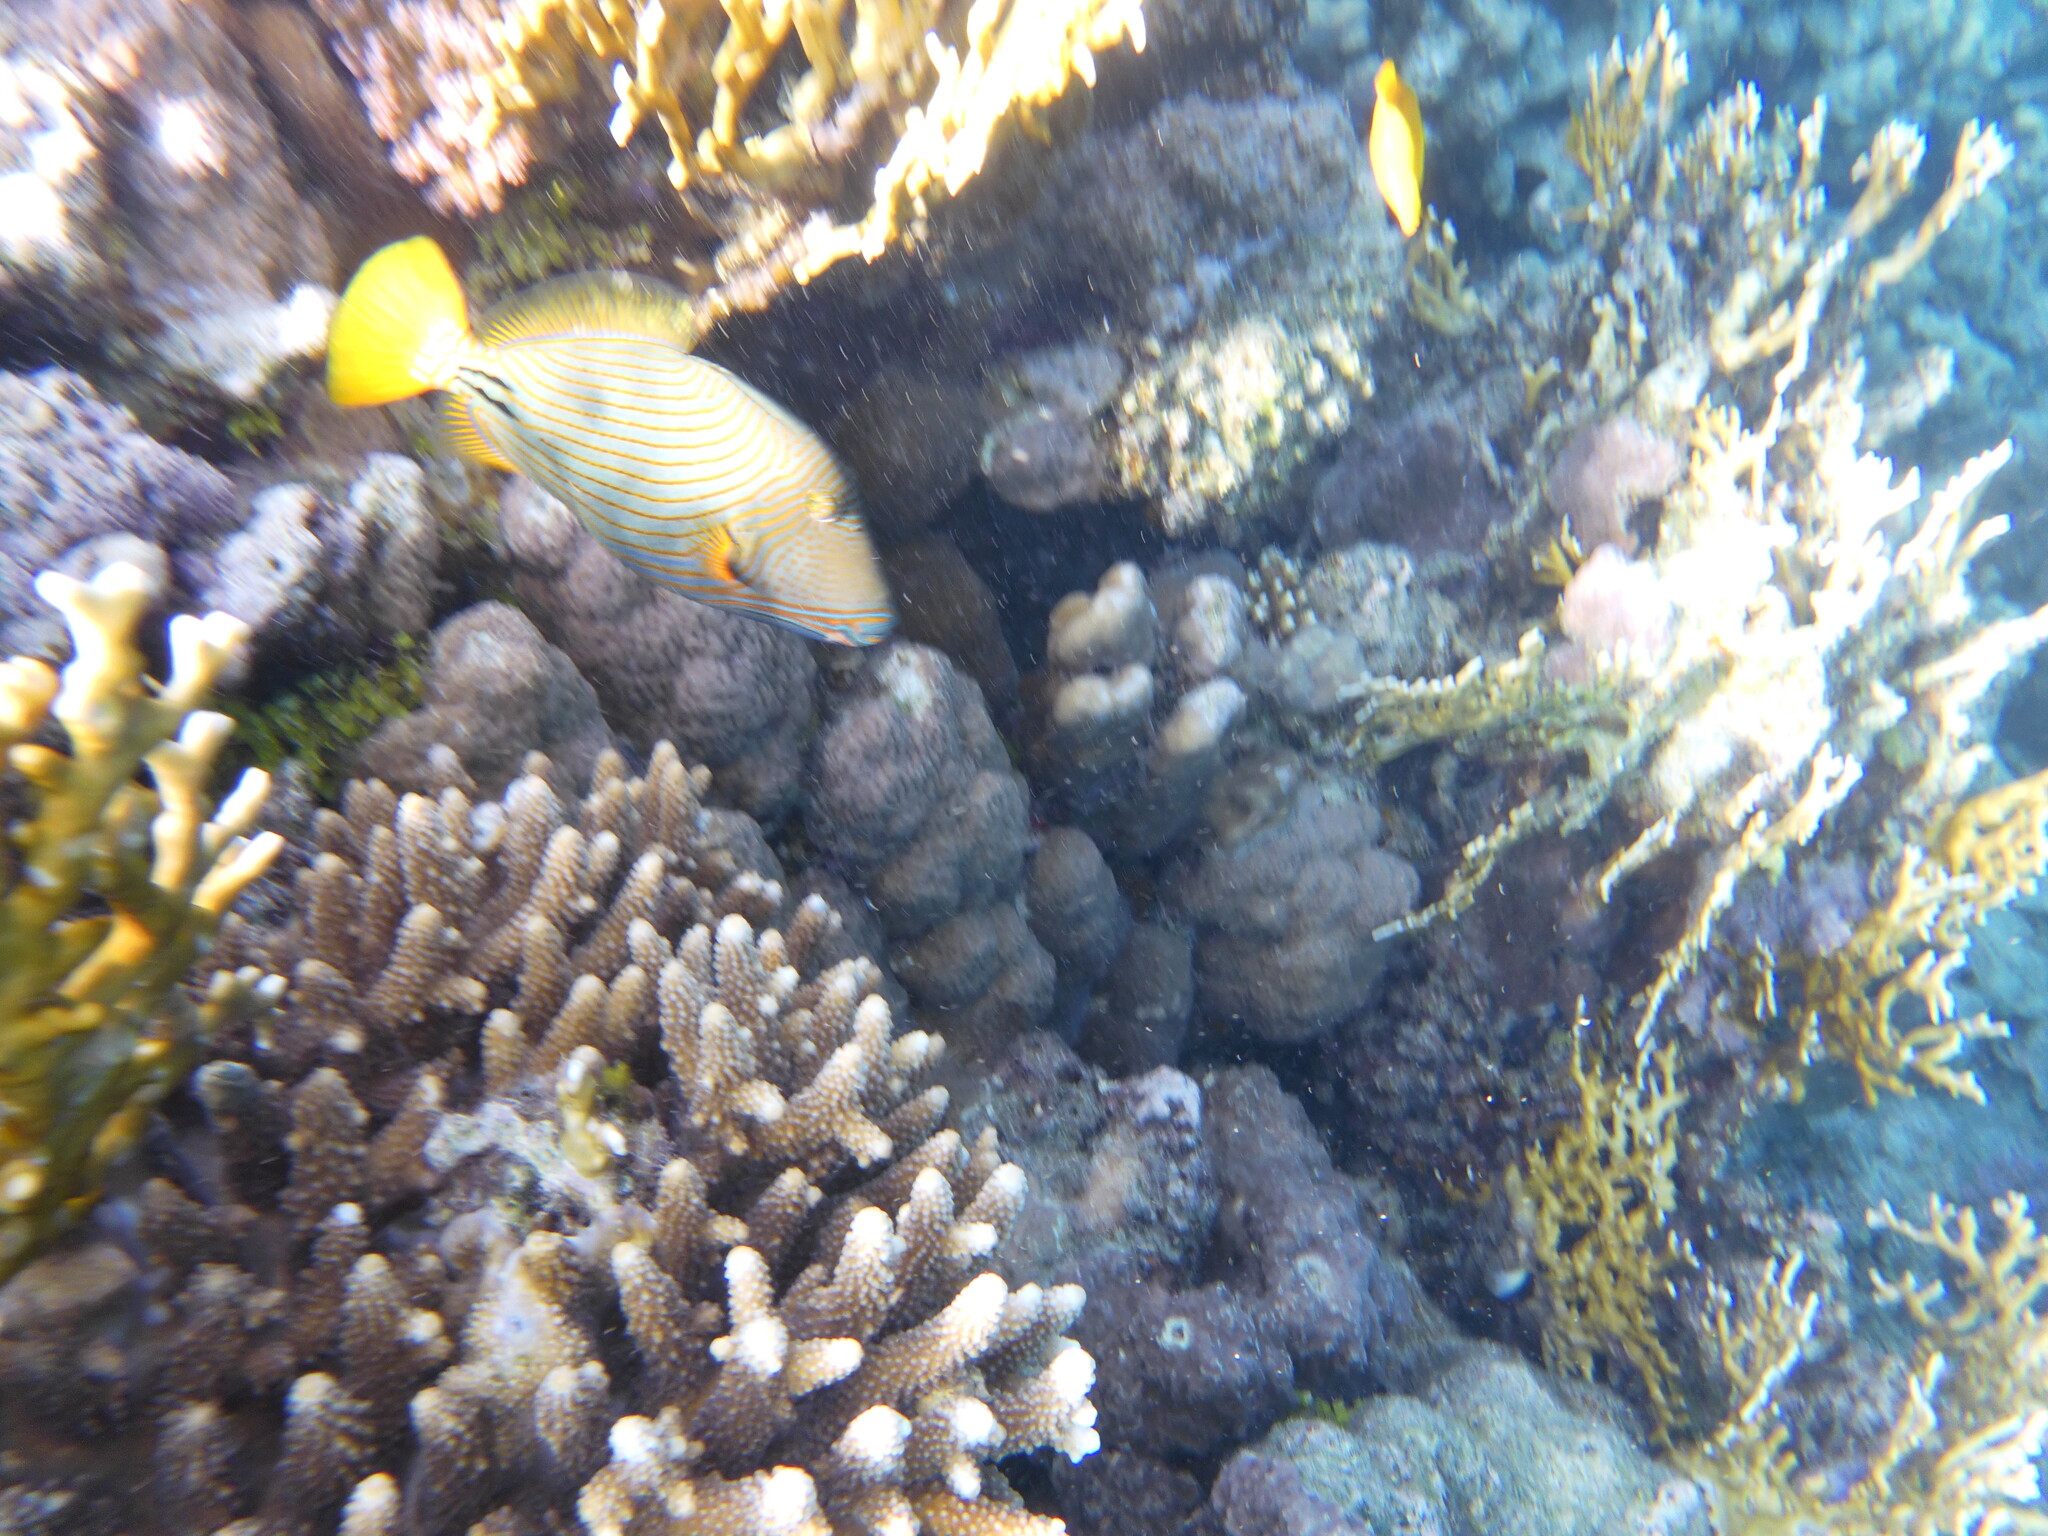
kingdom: Animalia
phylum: Chordata
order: Tetraodontiformes
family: Balistidae
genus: Balistapus
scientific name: Balistapus undulatus
